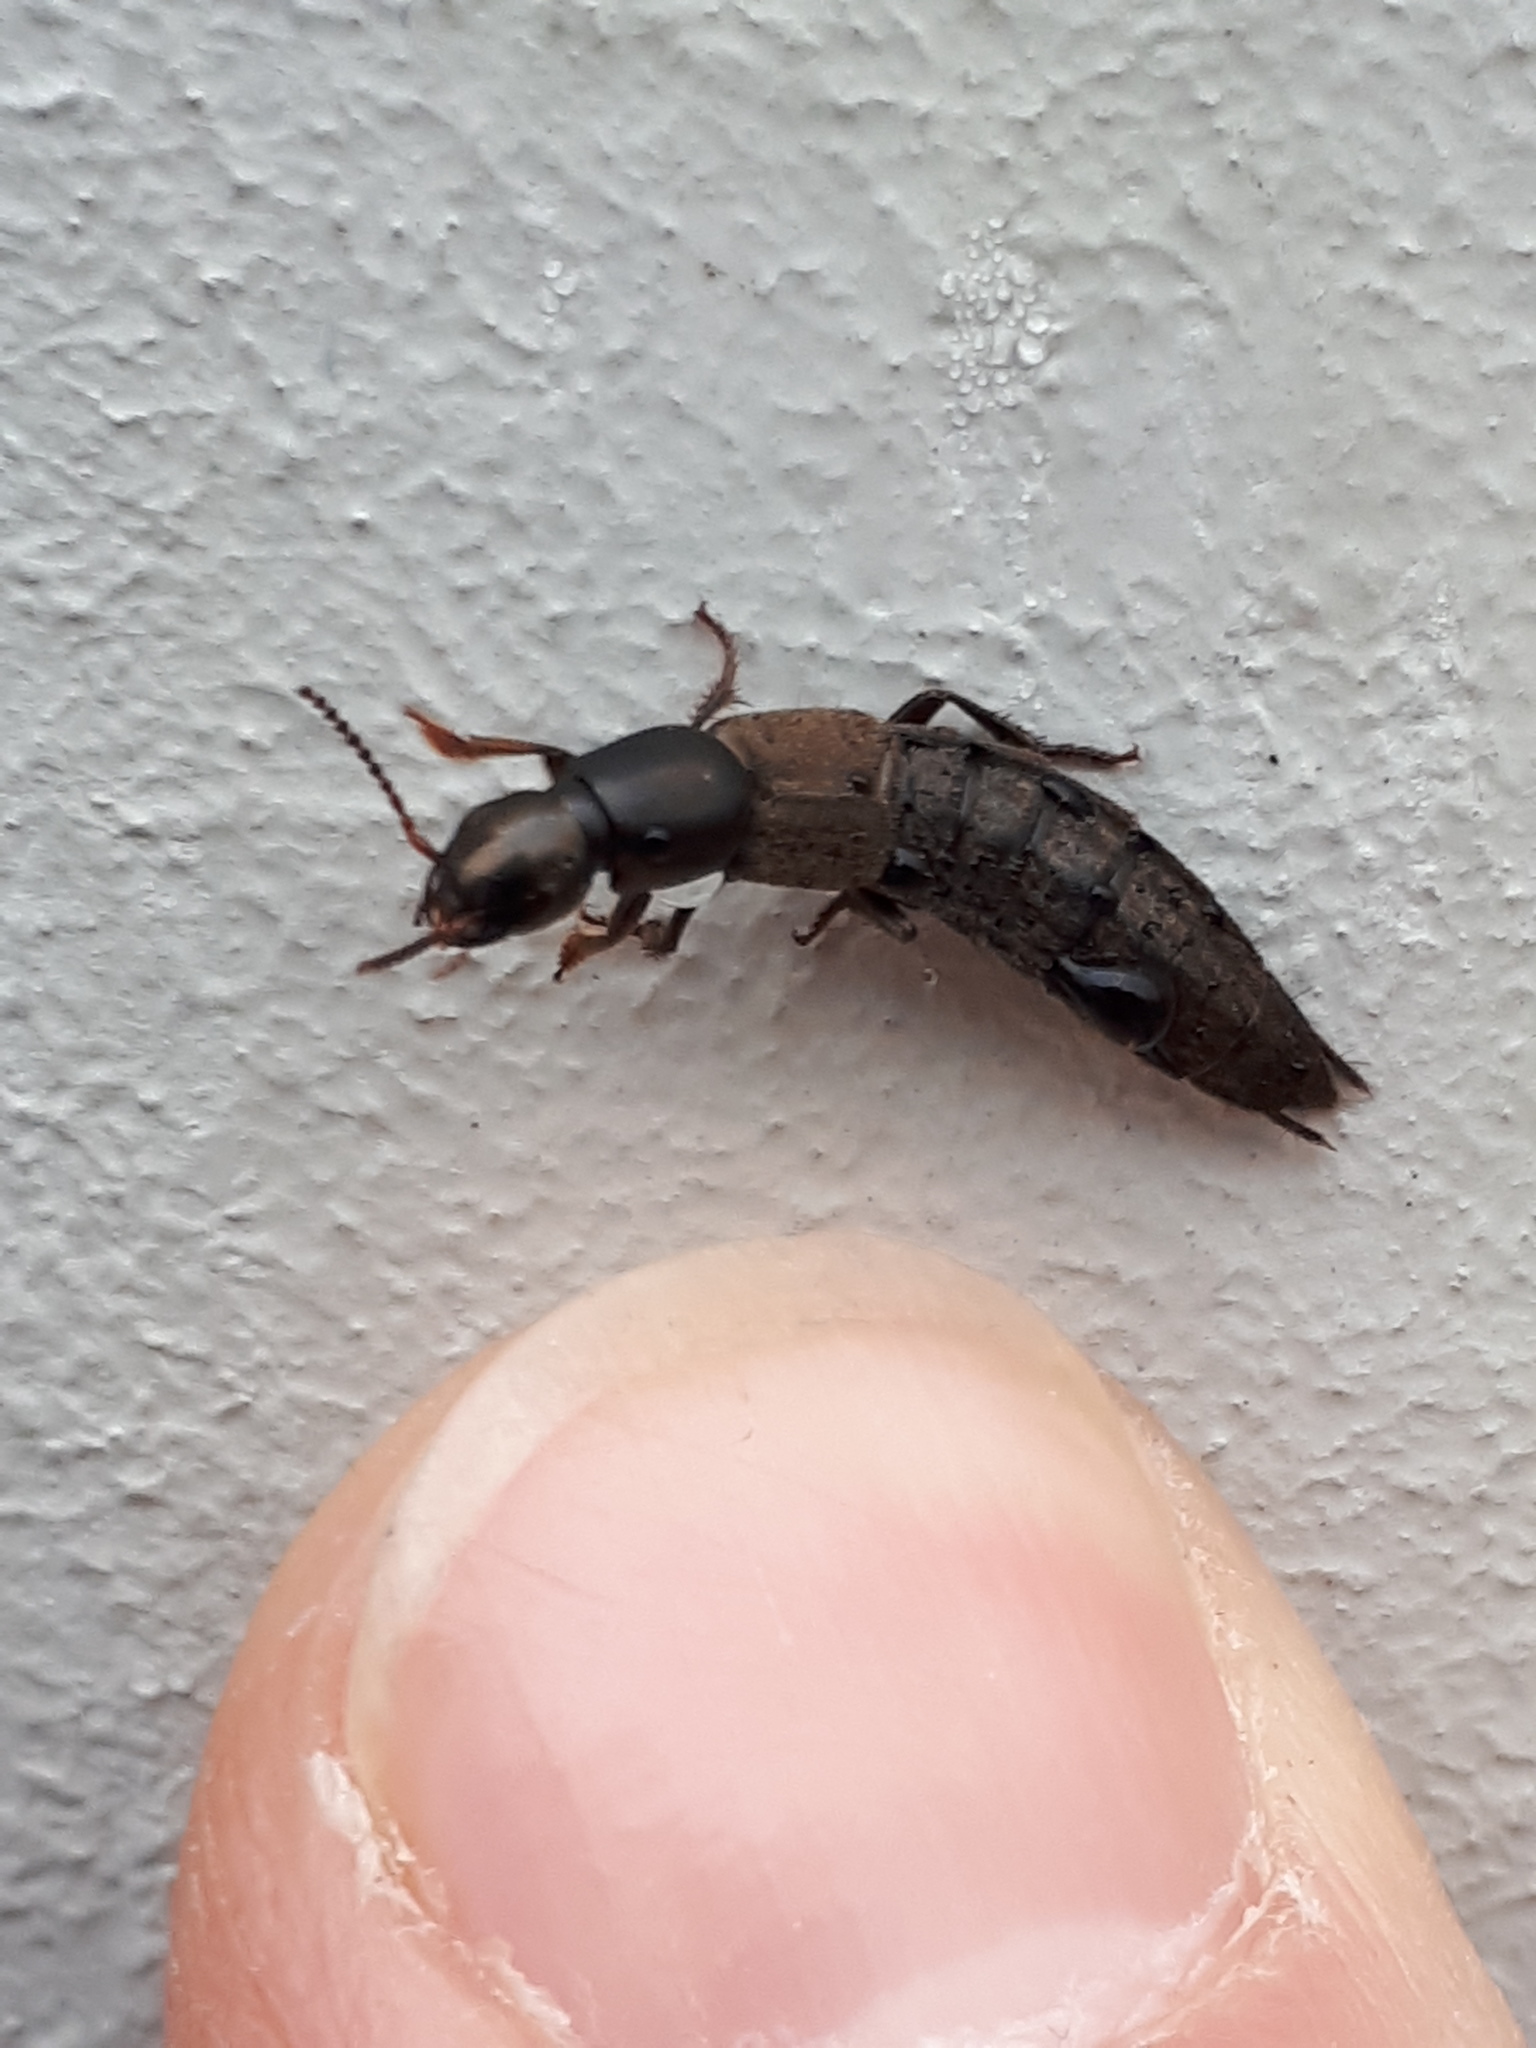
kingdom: Animalia
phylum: Arthropoda
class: Insecta
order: Coleoptera
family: Staphylinidae
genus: Ocypus
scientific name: Ocypus aeneocephalus
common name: Staph beetle
